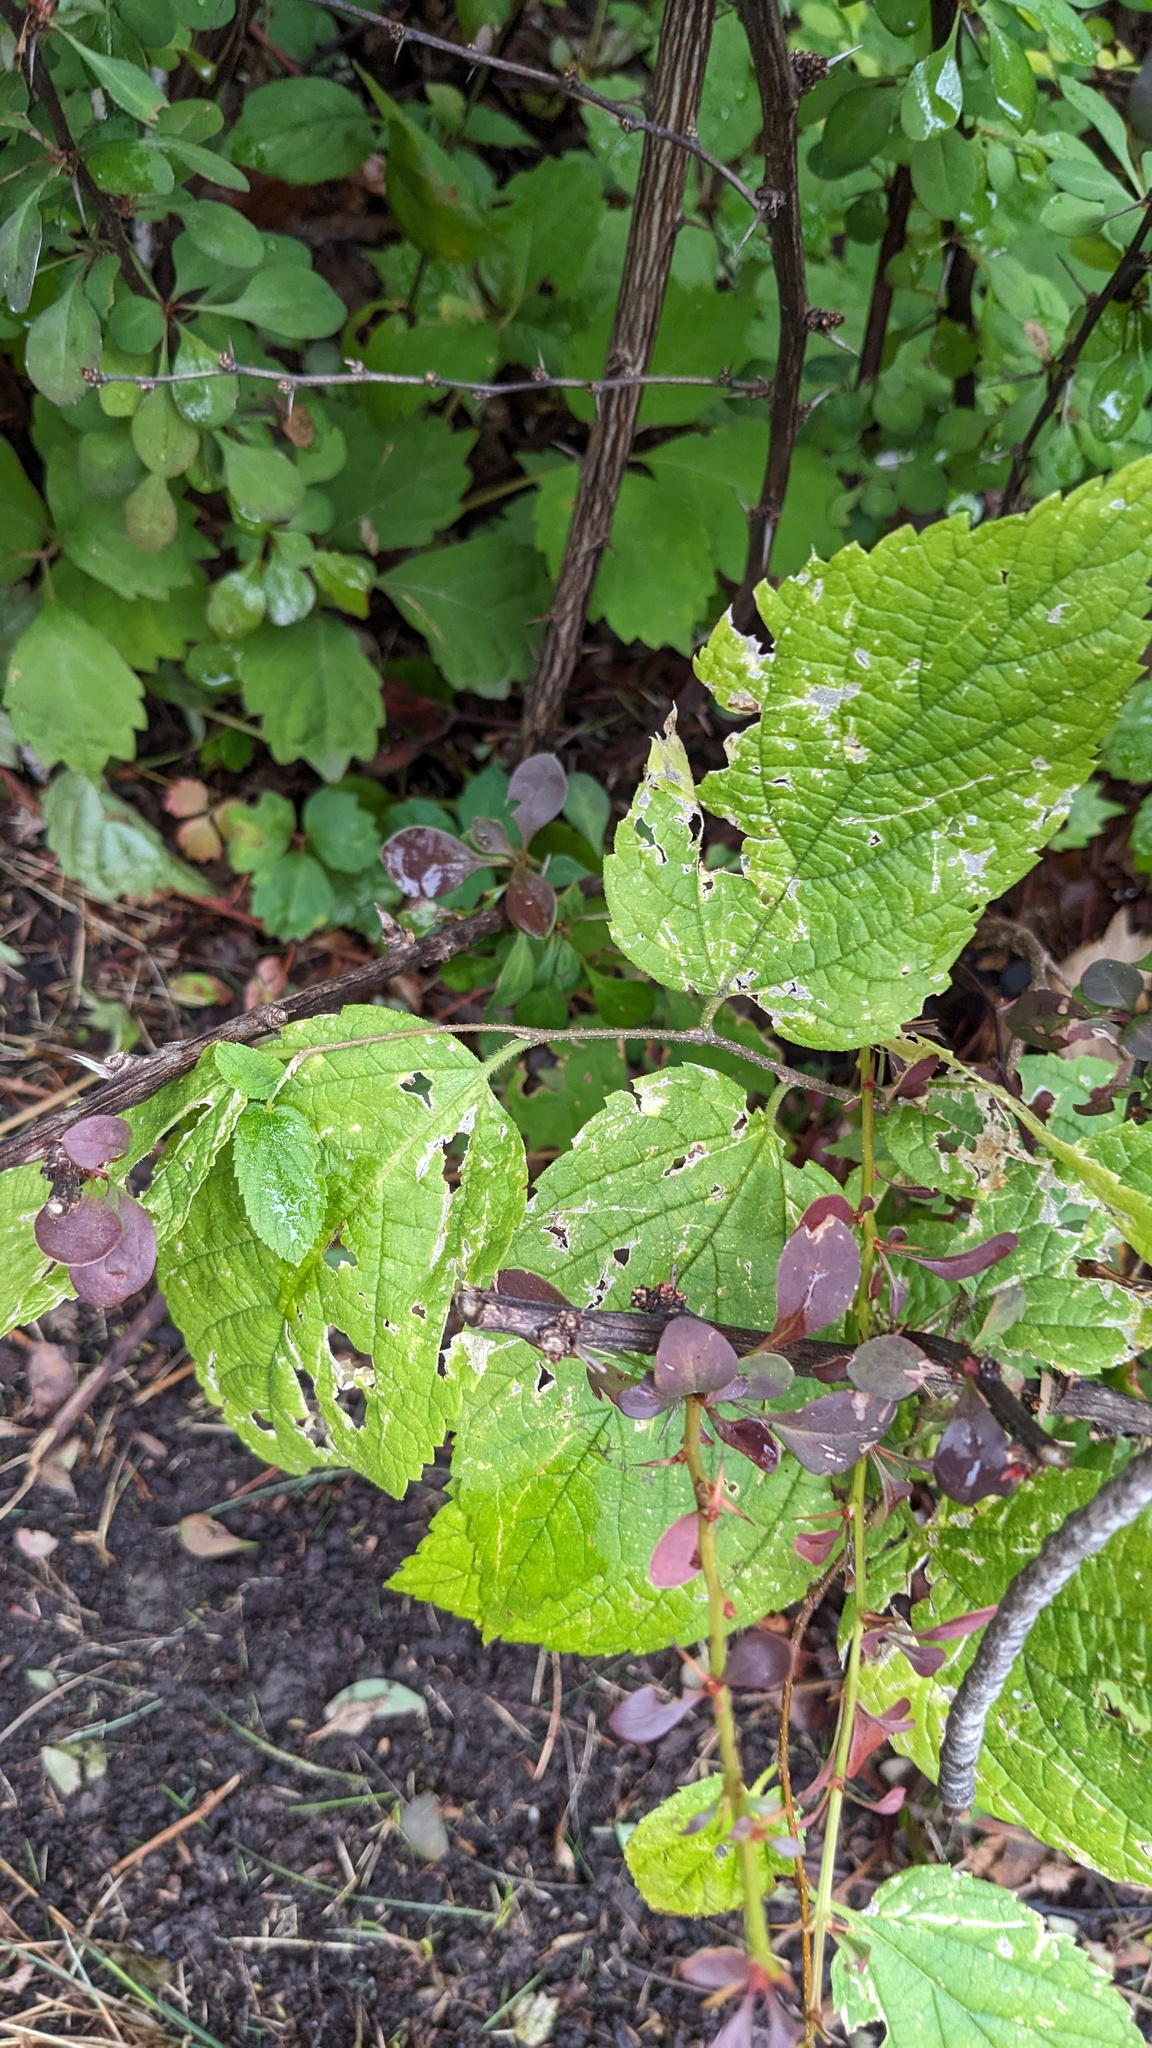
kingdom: Plantae
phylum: Tracheophyta
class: Magnoliopsida
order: Rosales
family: Cannabaceae
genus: Celtis
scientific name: Celtis occidentalis
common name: Common hackberry
